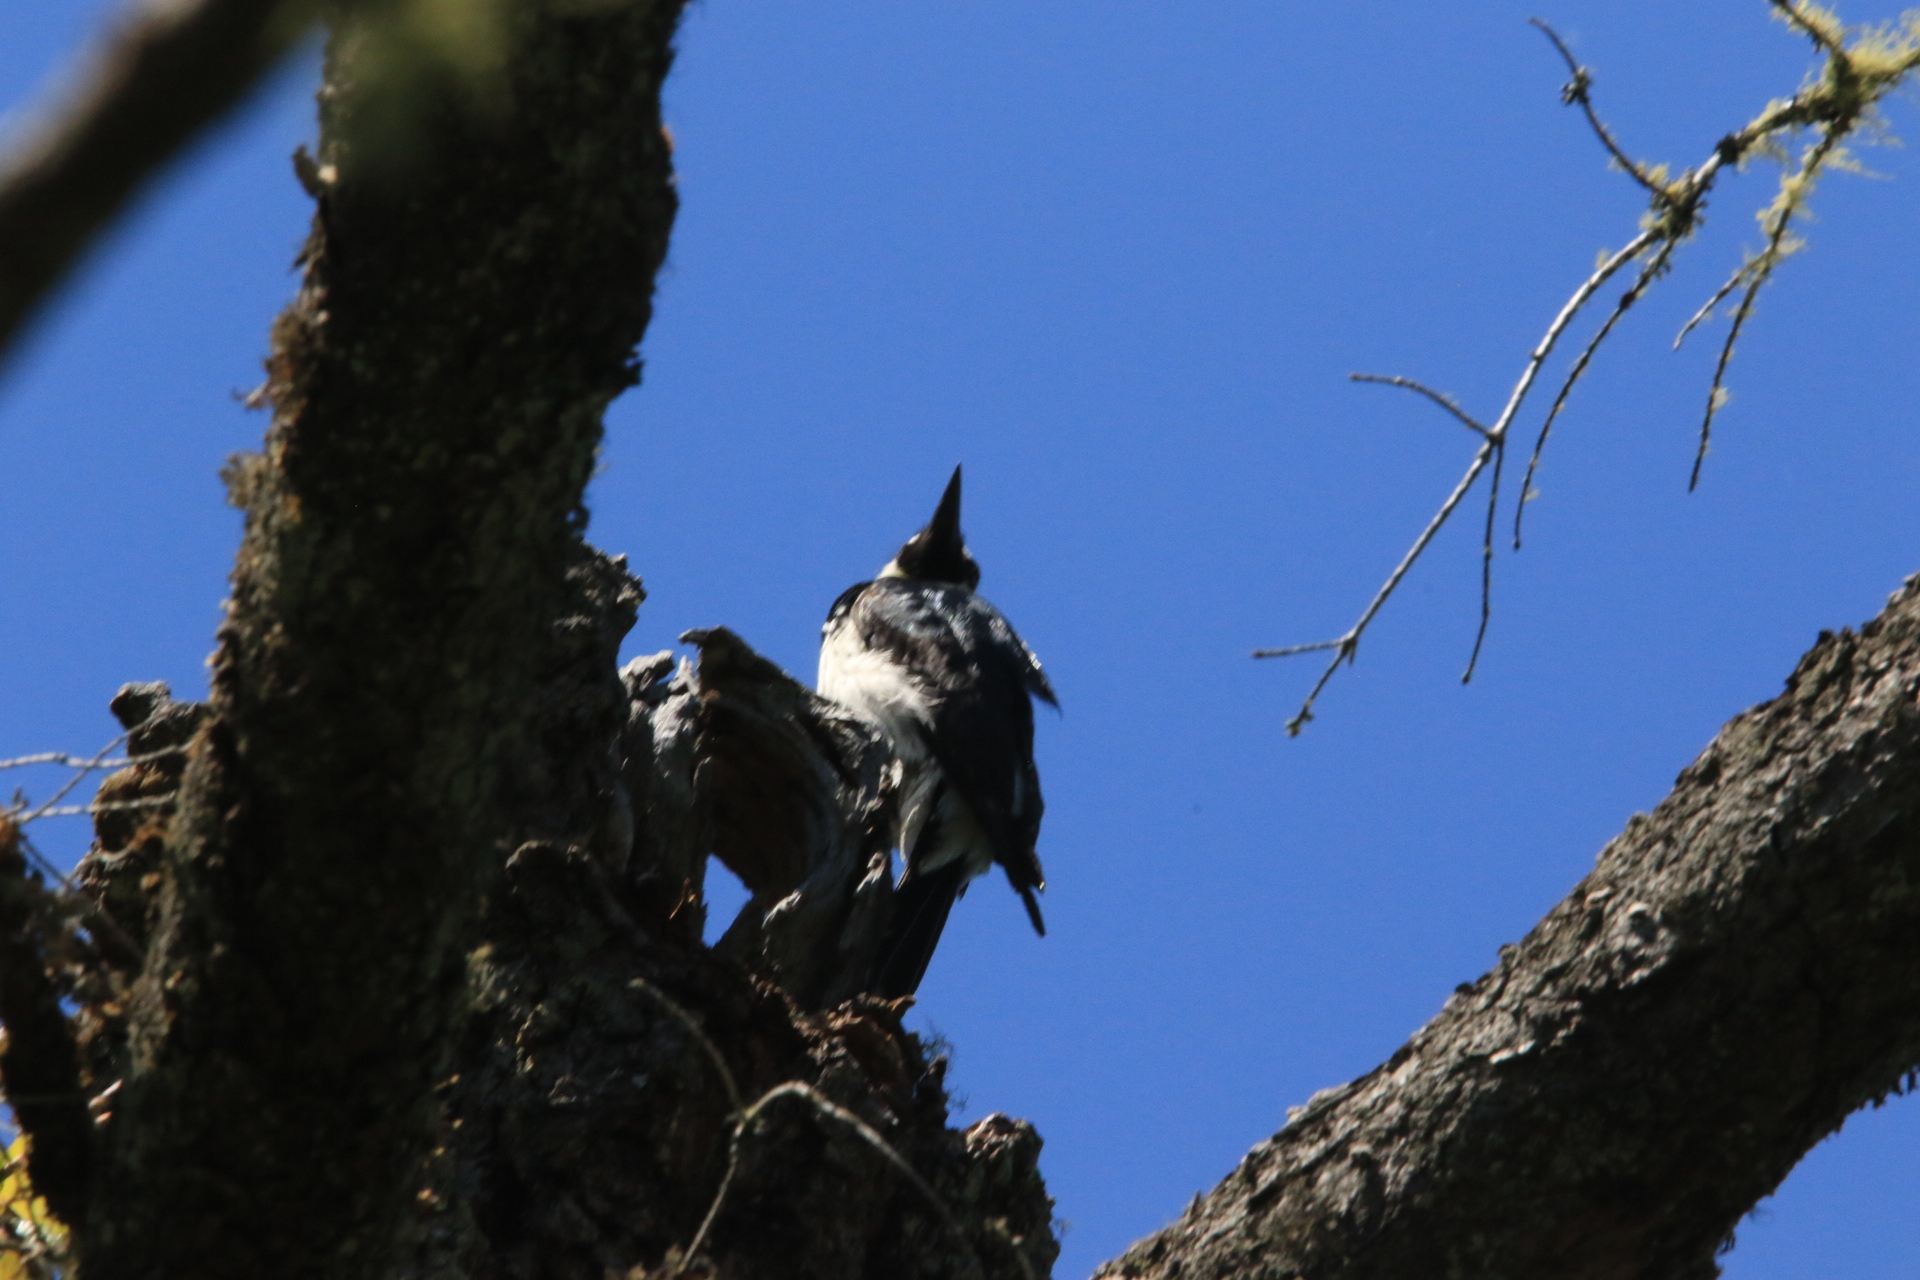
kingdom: Animalia
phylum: Chordata
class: Aves
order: Piciformes
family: Picidae
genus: Melanerpes
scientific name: Melanerpes formicivorus
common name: Acorn woodpecker
